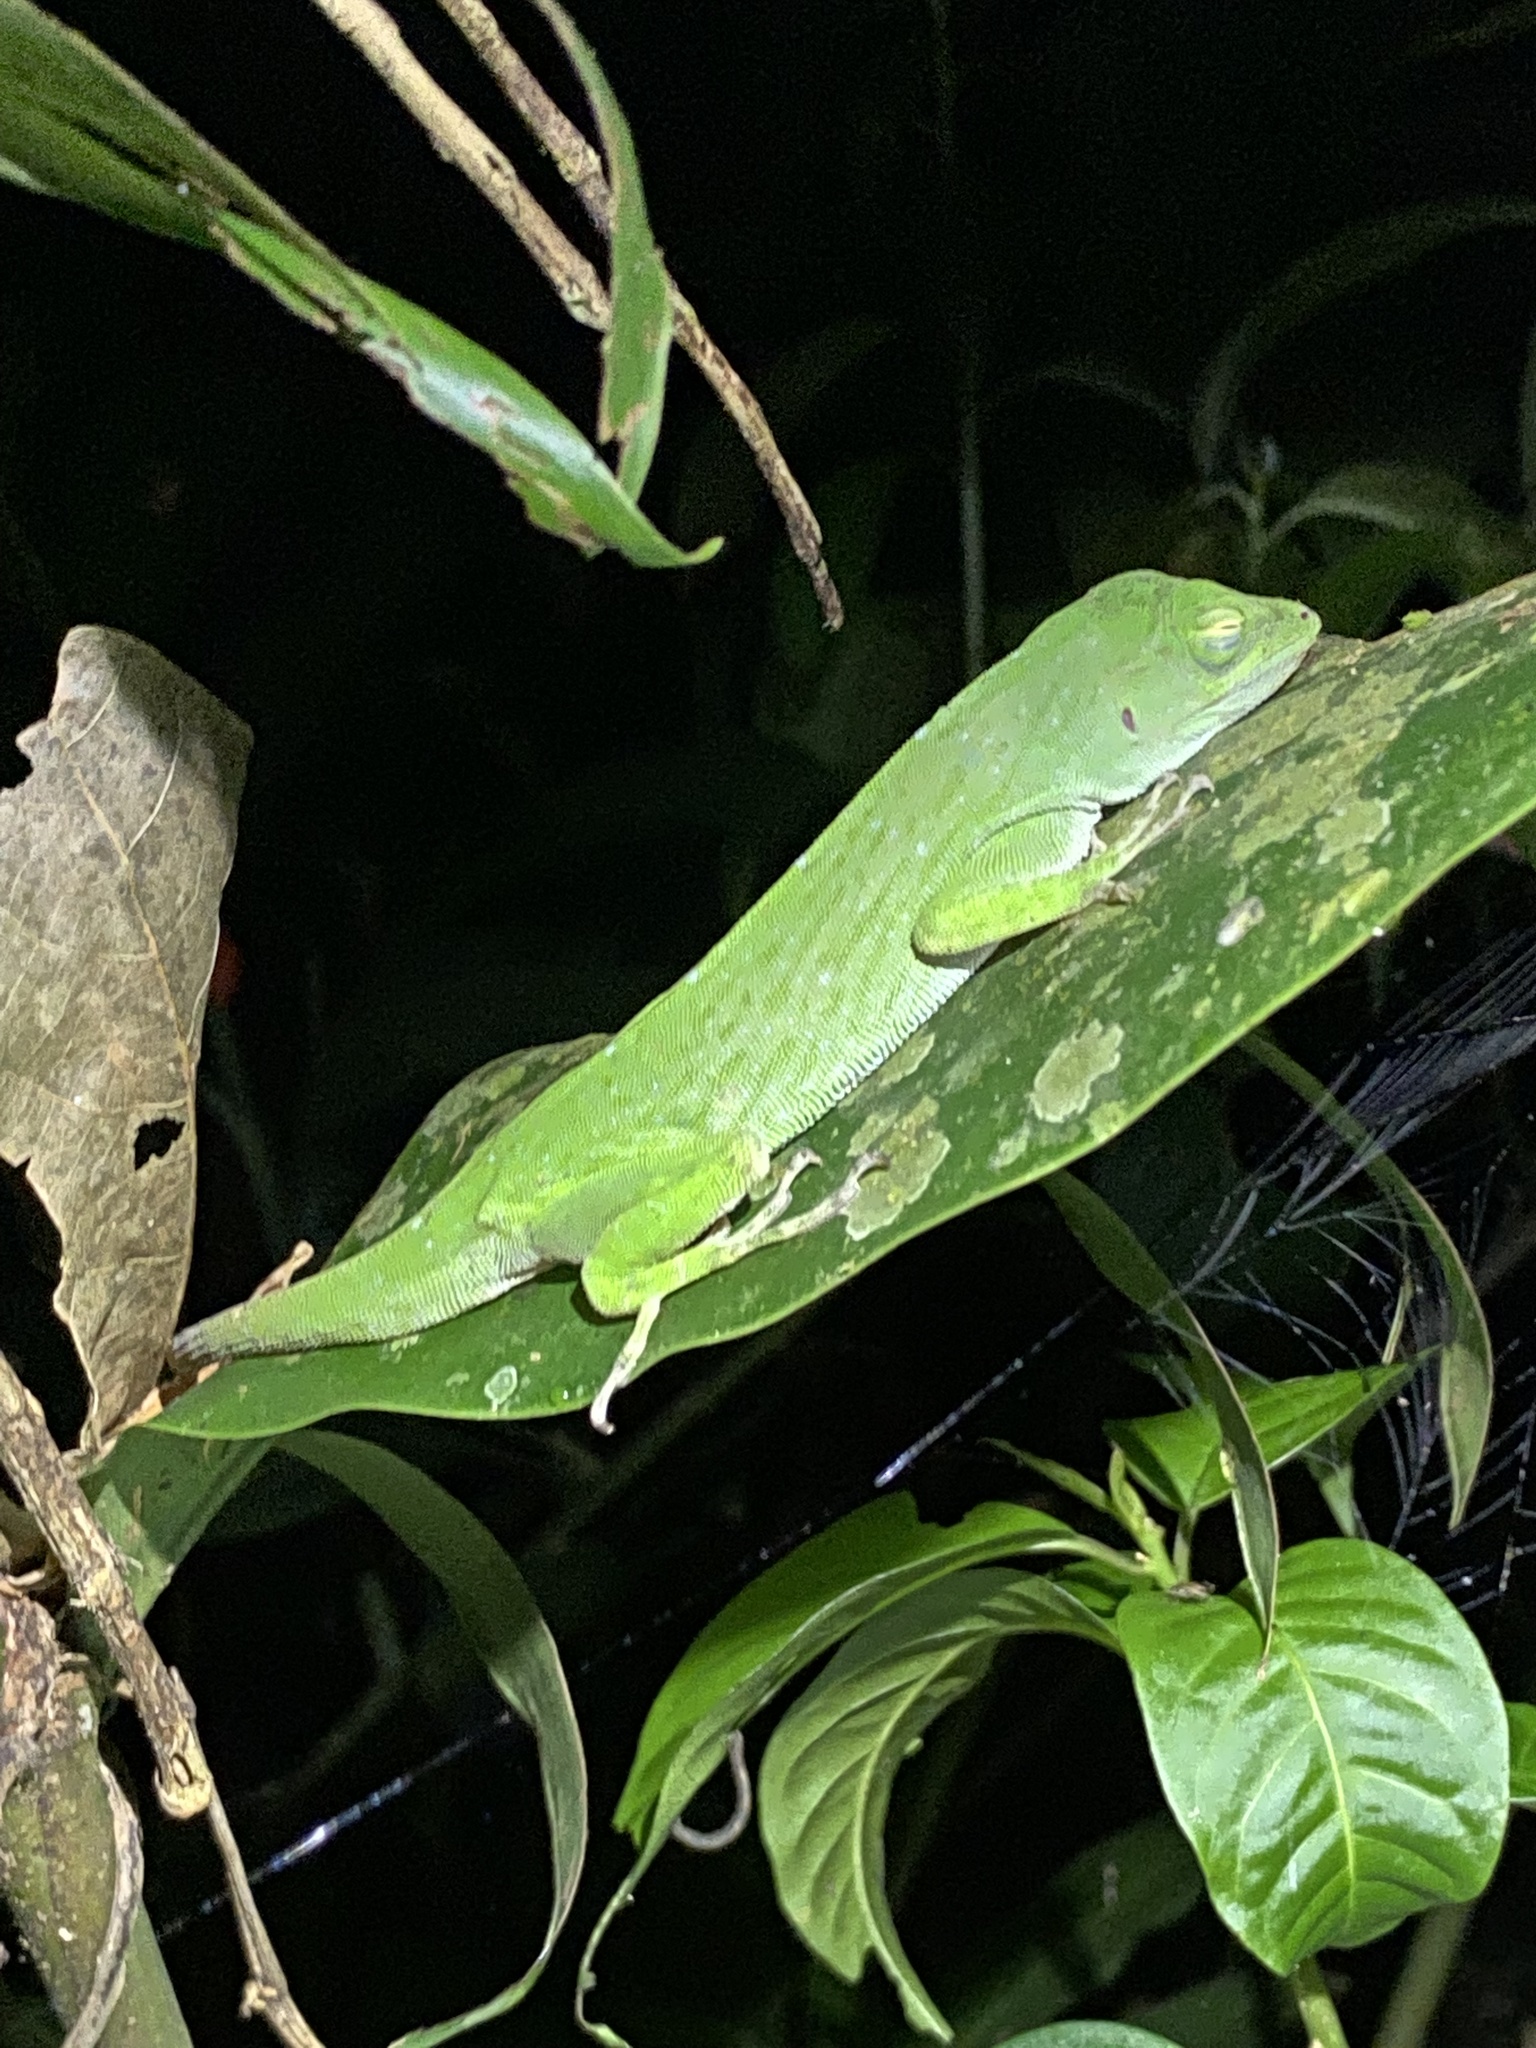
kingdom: Animalia
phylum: Chordata
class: Squamata
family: Dactyloidae
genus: Anolis
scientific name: Anolis biporcatus
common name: Giant green anole
